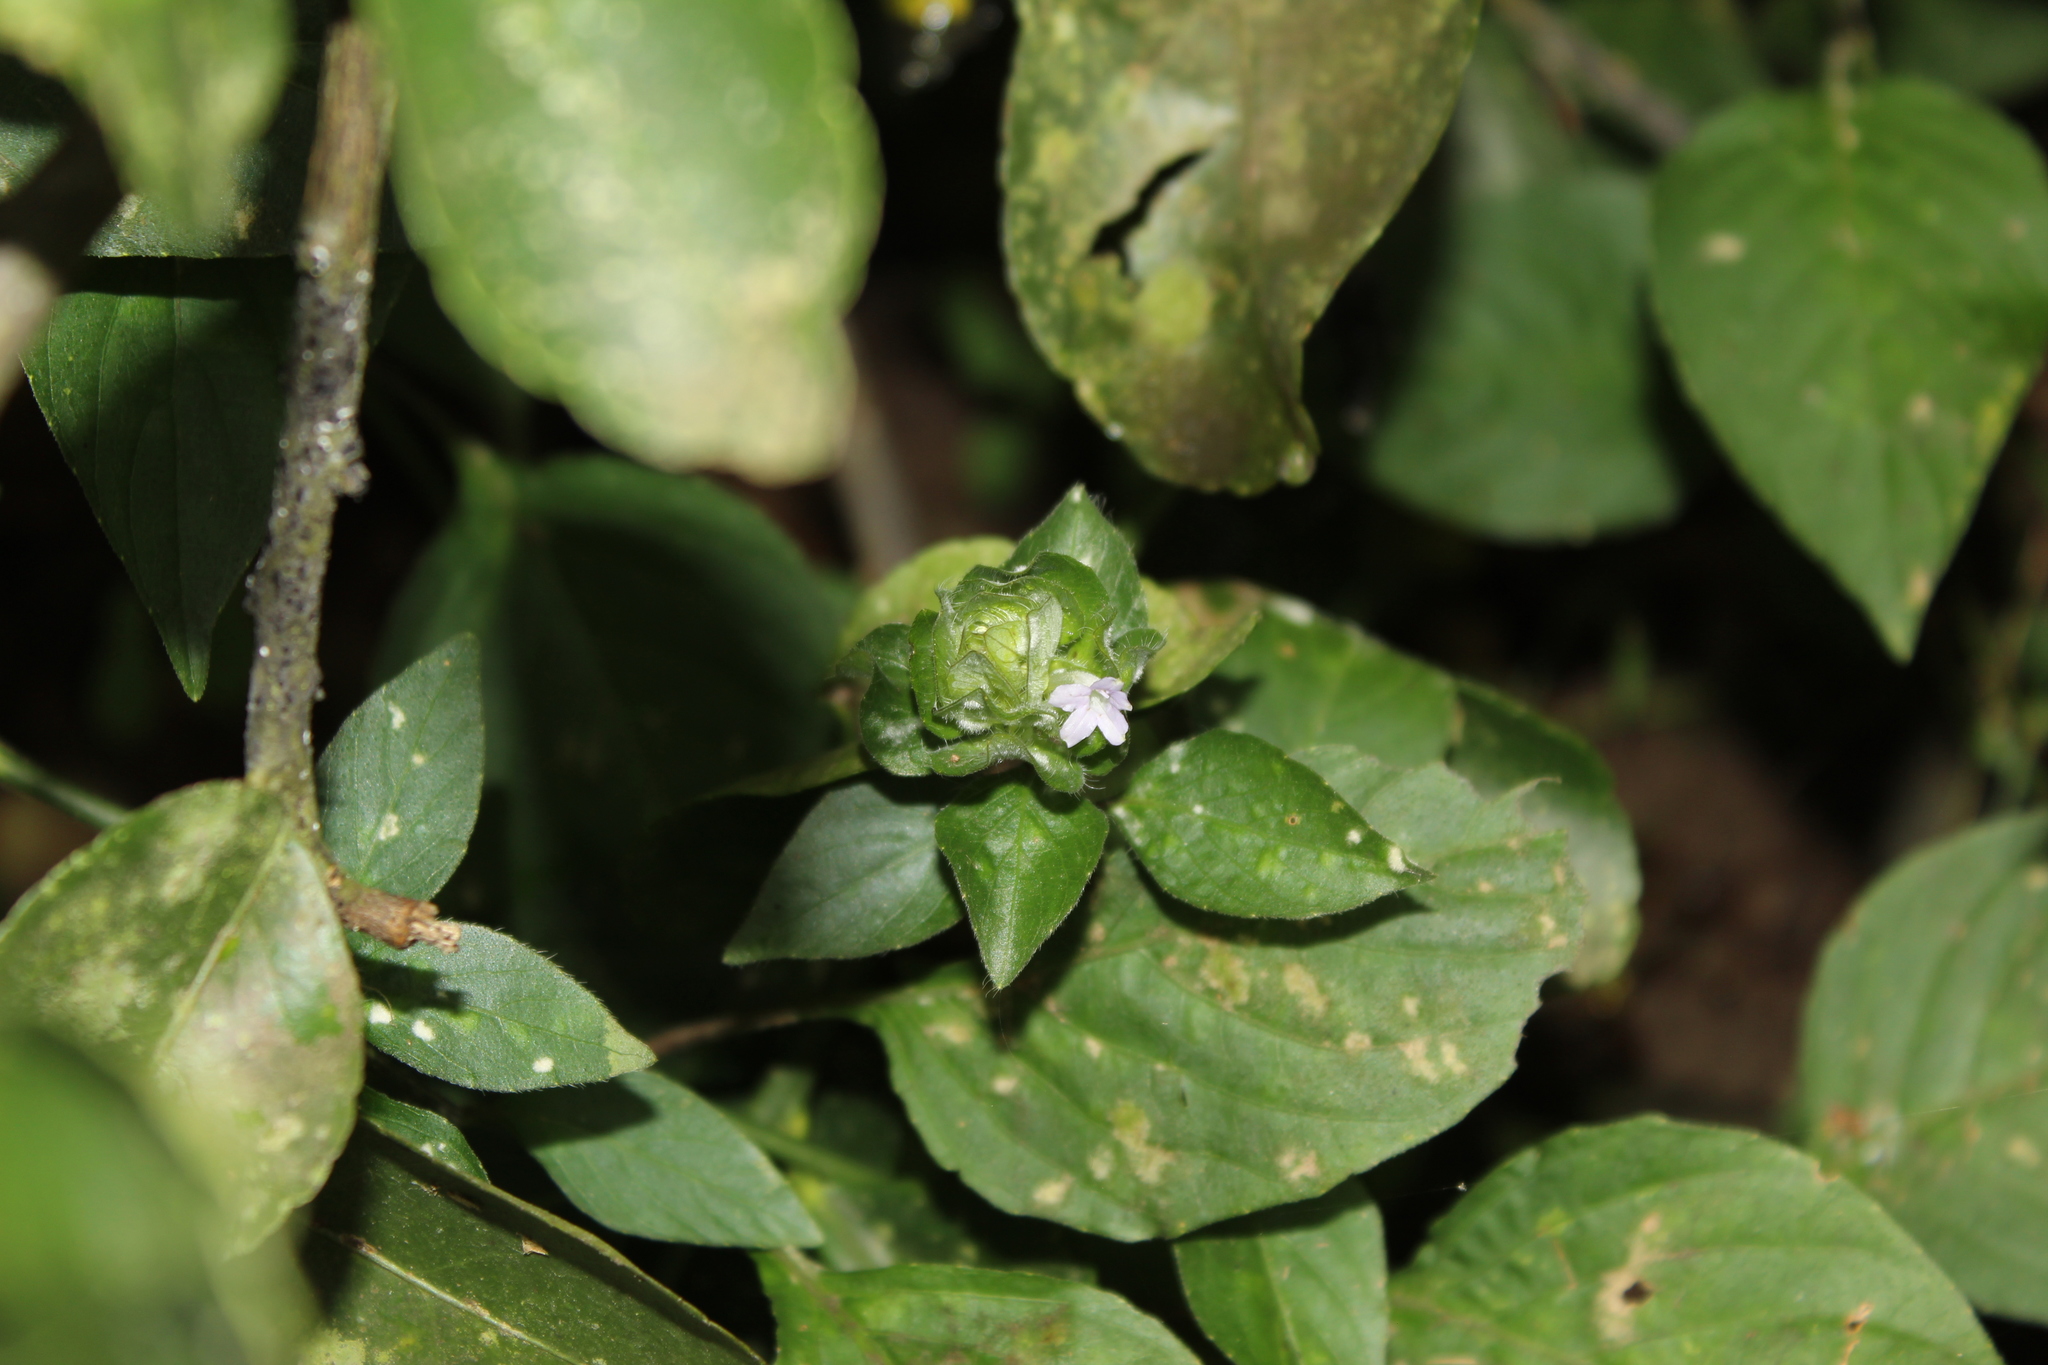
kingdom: Plantae
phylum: Tracheophyta
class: Magnoliopsida
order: Lamiales
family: Acanthaceae
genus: Ruellia
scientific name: Ruellia blechum
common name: Browne's blechum
